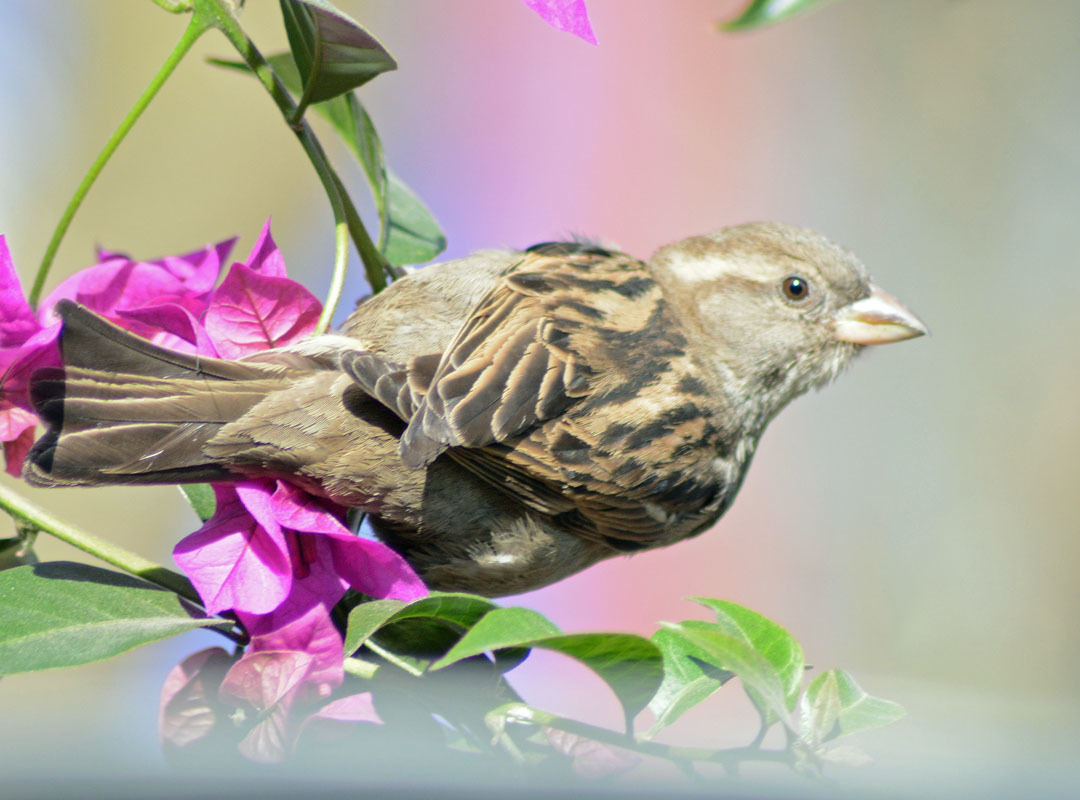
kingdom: Animalia
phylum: Chordata
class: Aves
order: Passeriformes
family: Passeridae
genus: Passer
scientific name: Passer domesticus
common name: House sparrow
